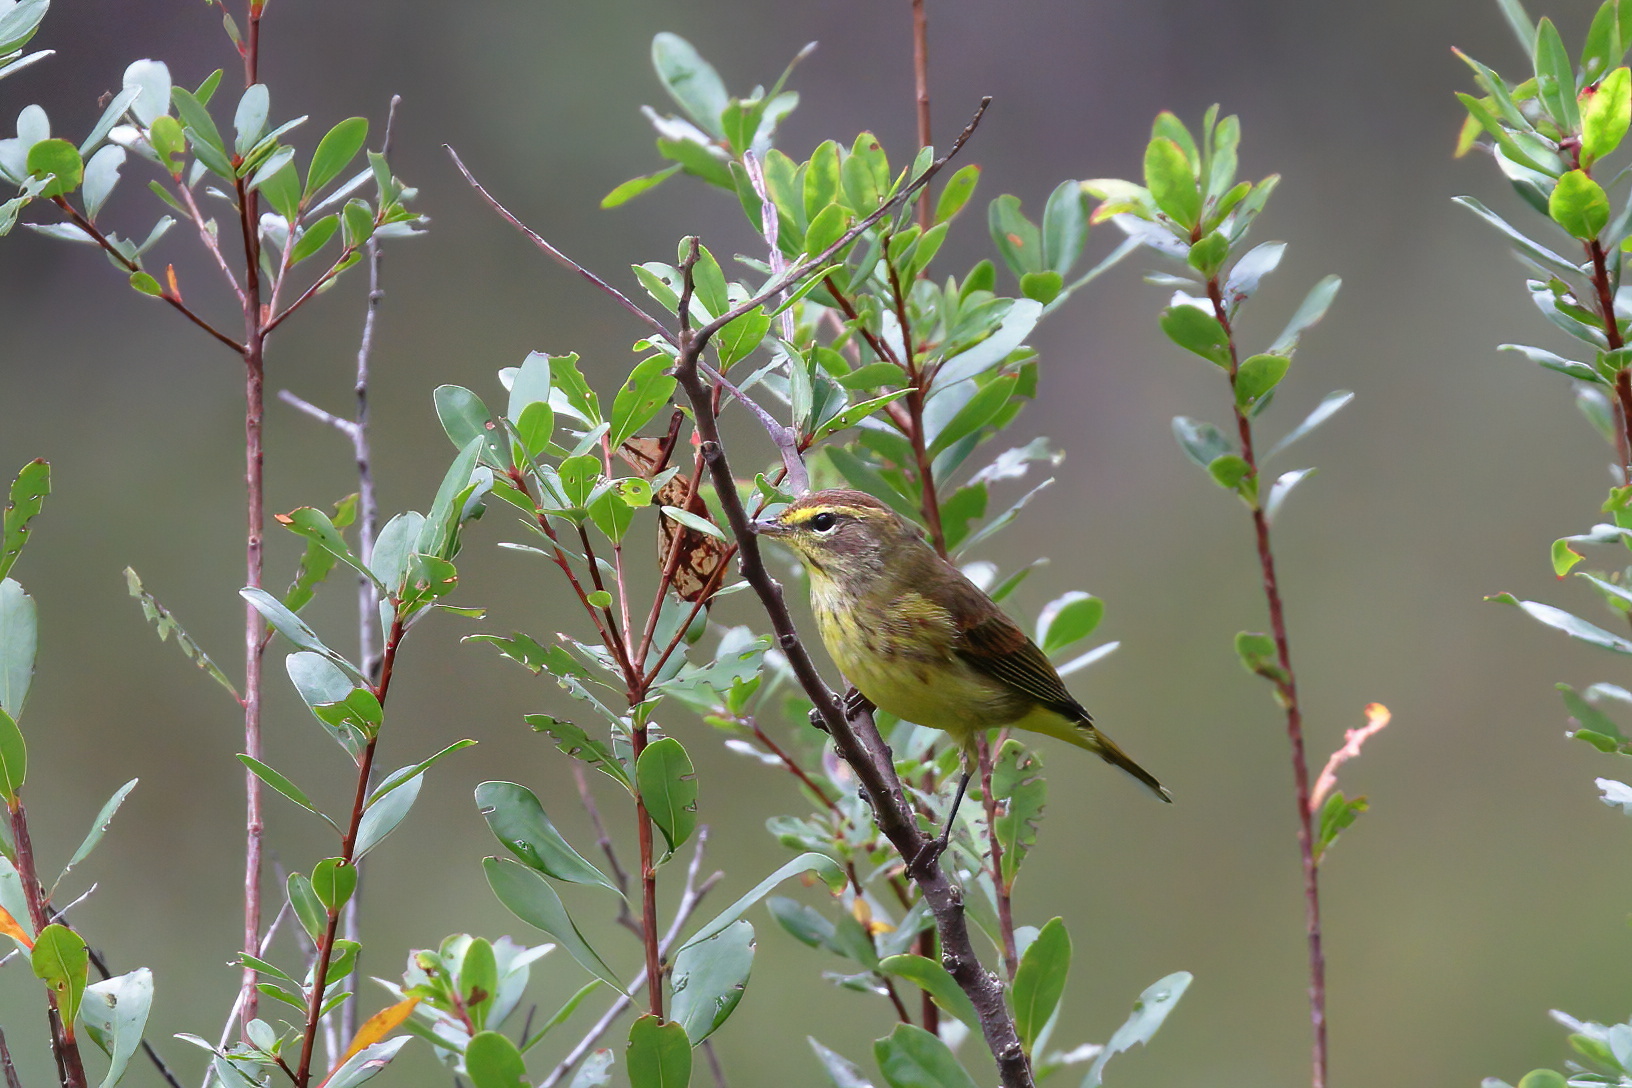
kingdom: Animalia
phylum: Chordata
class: Aves
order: Passeriformes
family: Parulidae
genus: Setophaga
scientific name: Setophaga palmarum
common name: Palm warbler
